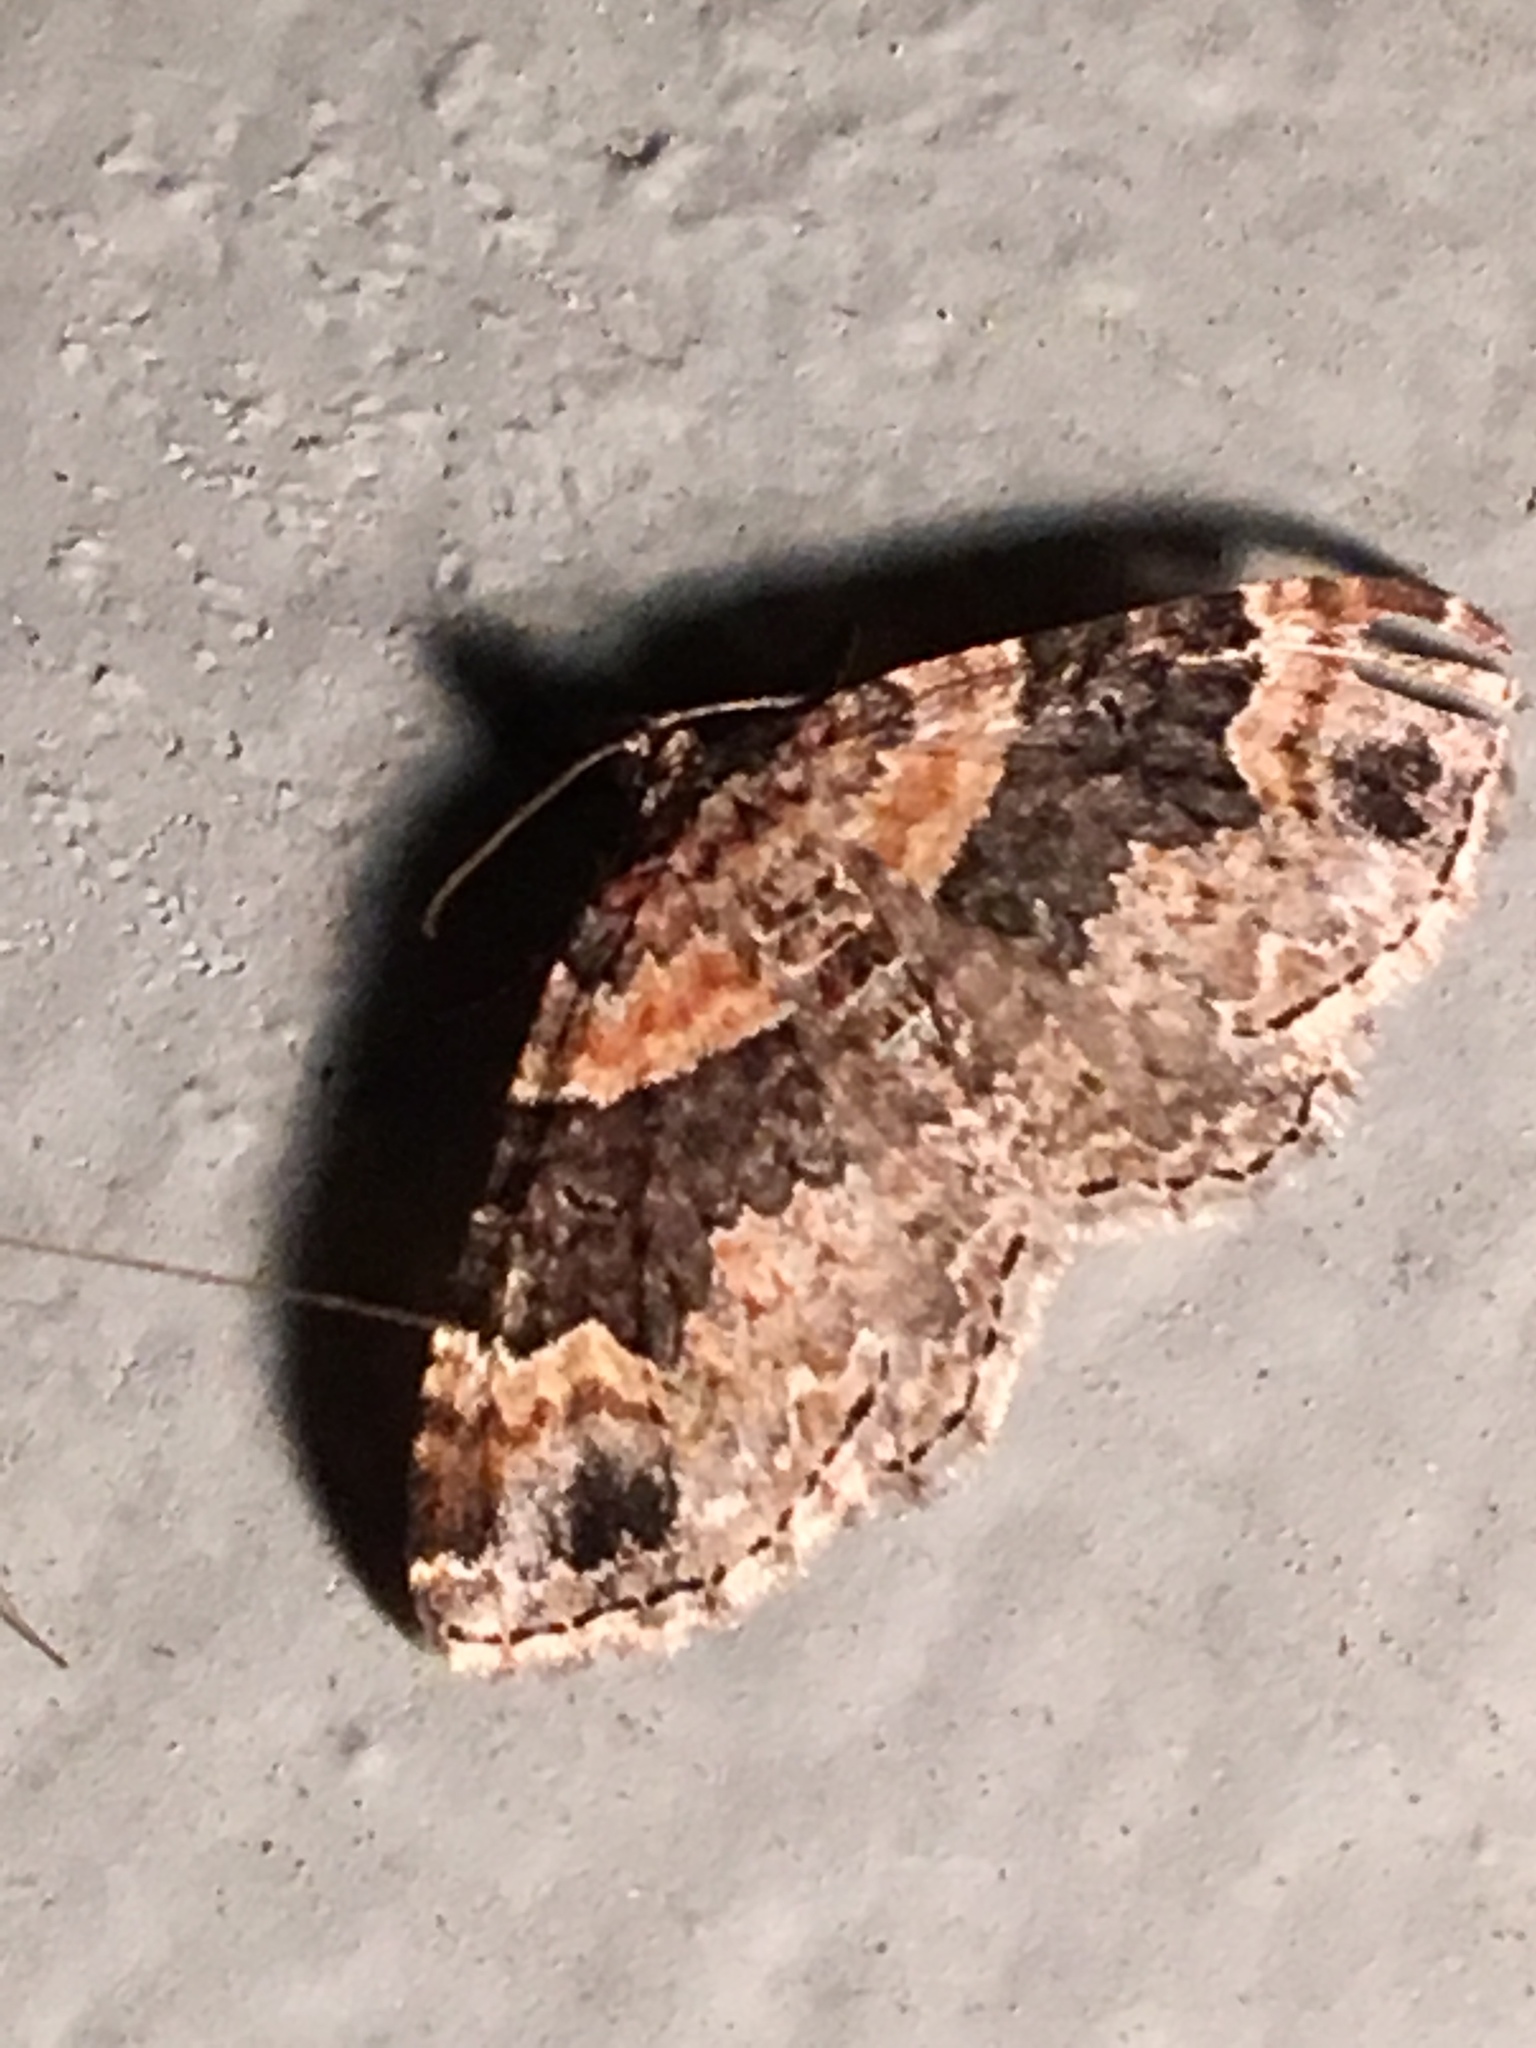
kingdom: Animalia
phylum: Arthropoda
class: Insecta
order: Lepidoptera
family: Geometridae
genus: Xanthorhoe
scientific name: Xanthorhoe ferrugata
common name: Dark-barred twin-spot carpet
